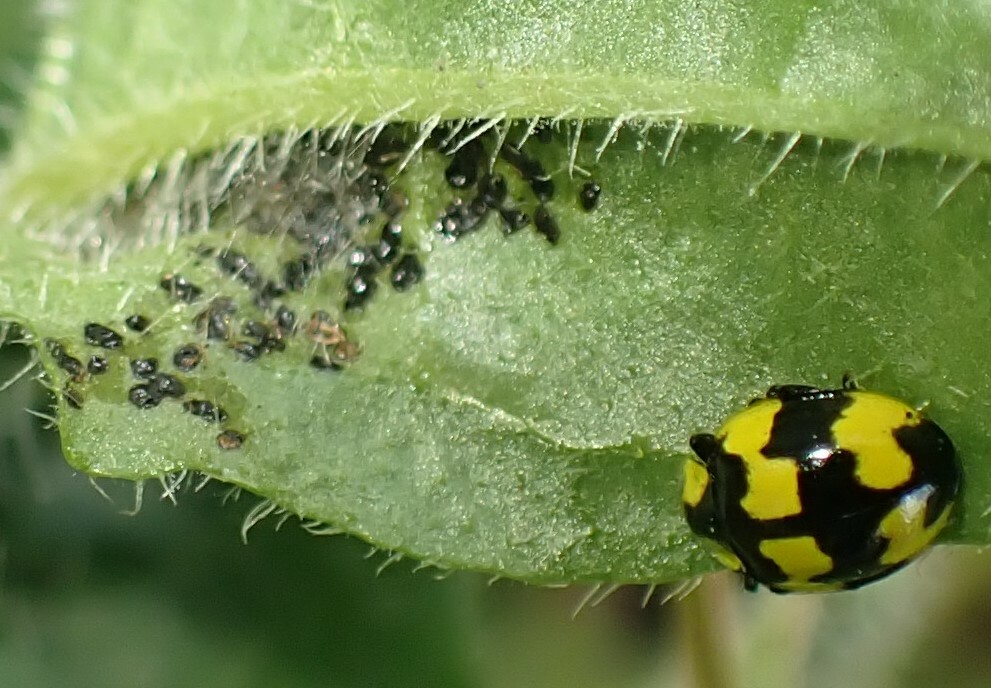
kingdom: Animalia
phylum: Arthropoda
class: Insecta
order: Coleoptera
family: Coccinellidae
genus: Illeis
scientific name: Illeis galbula
